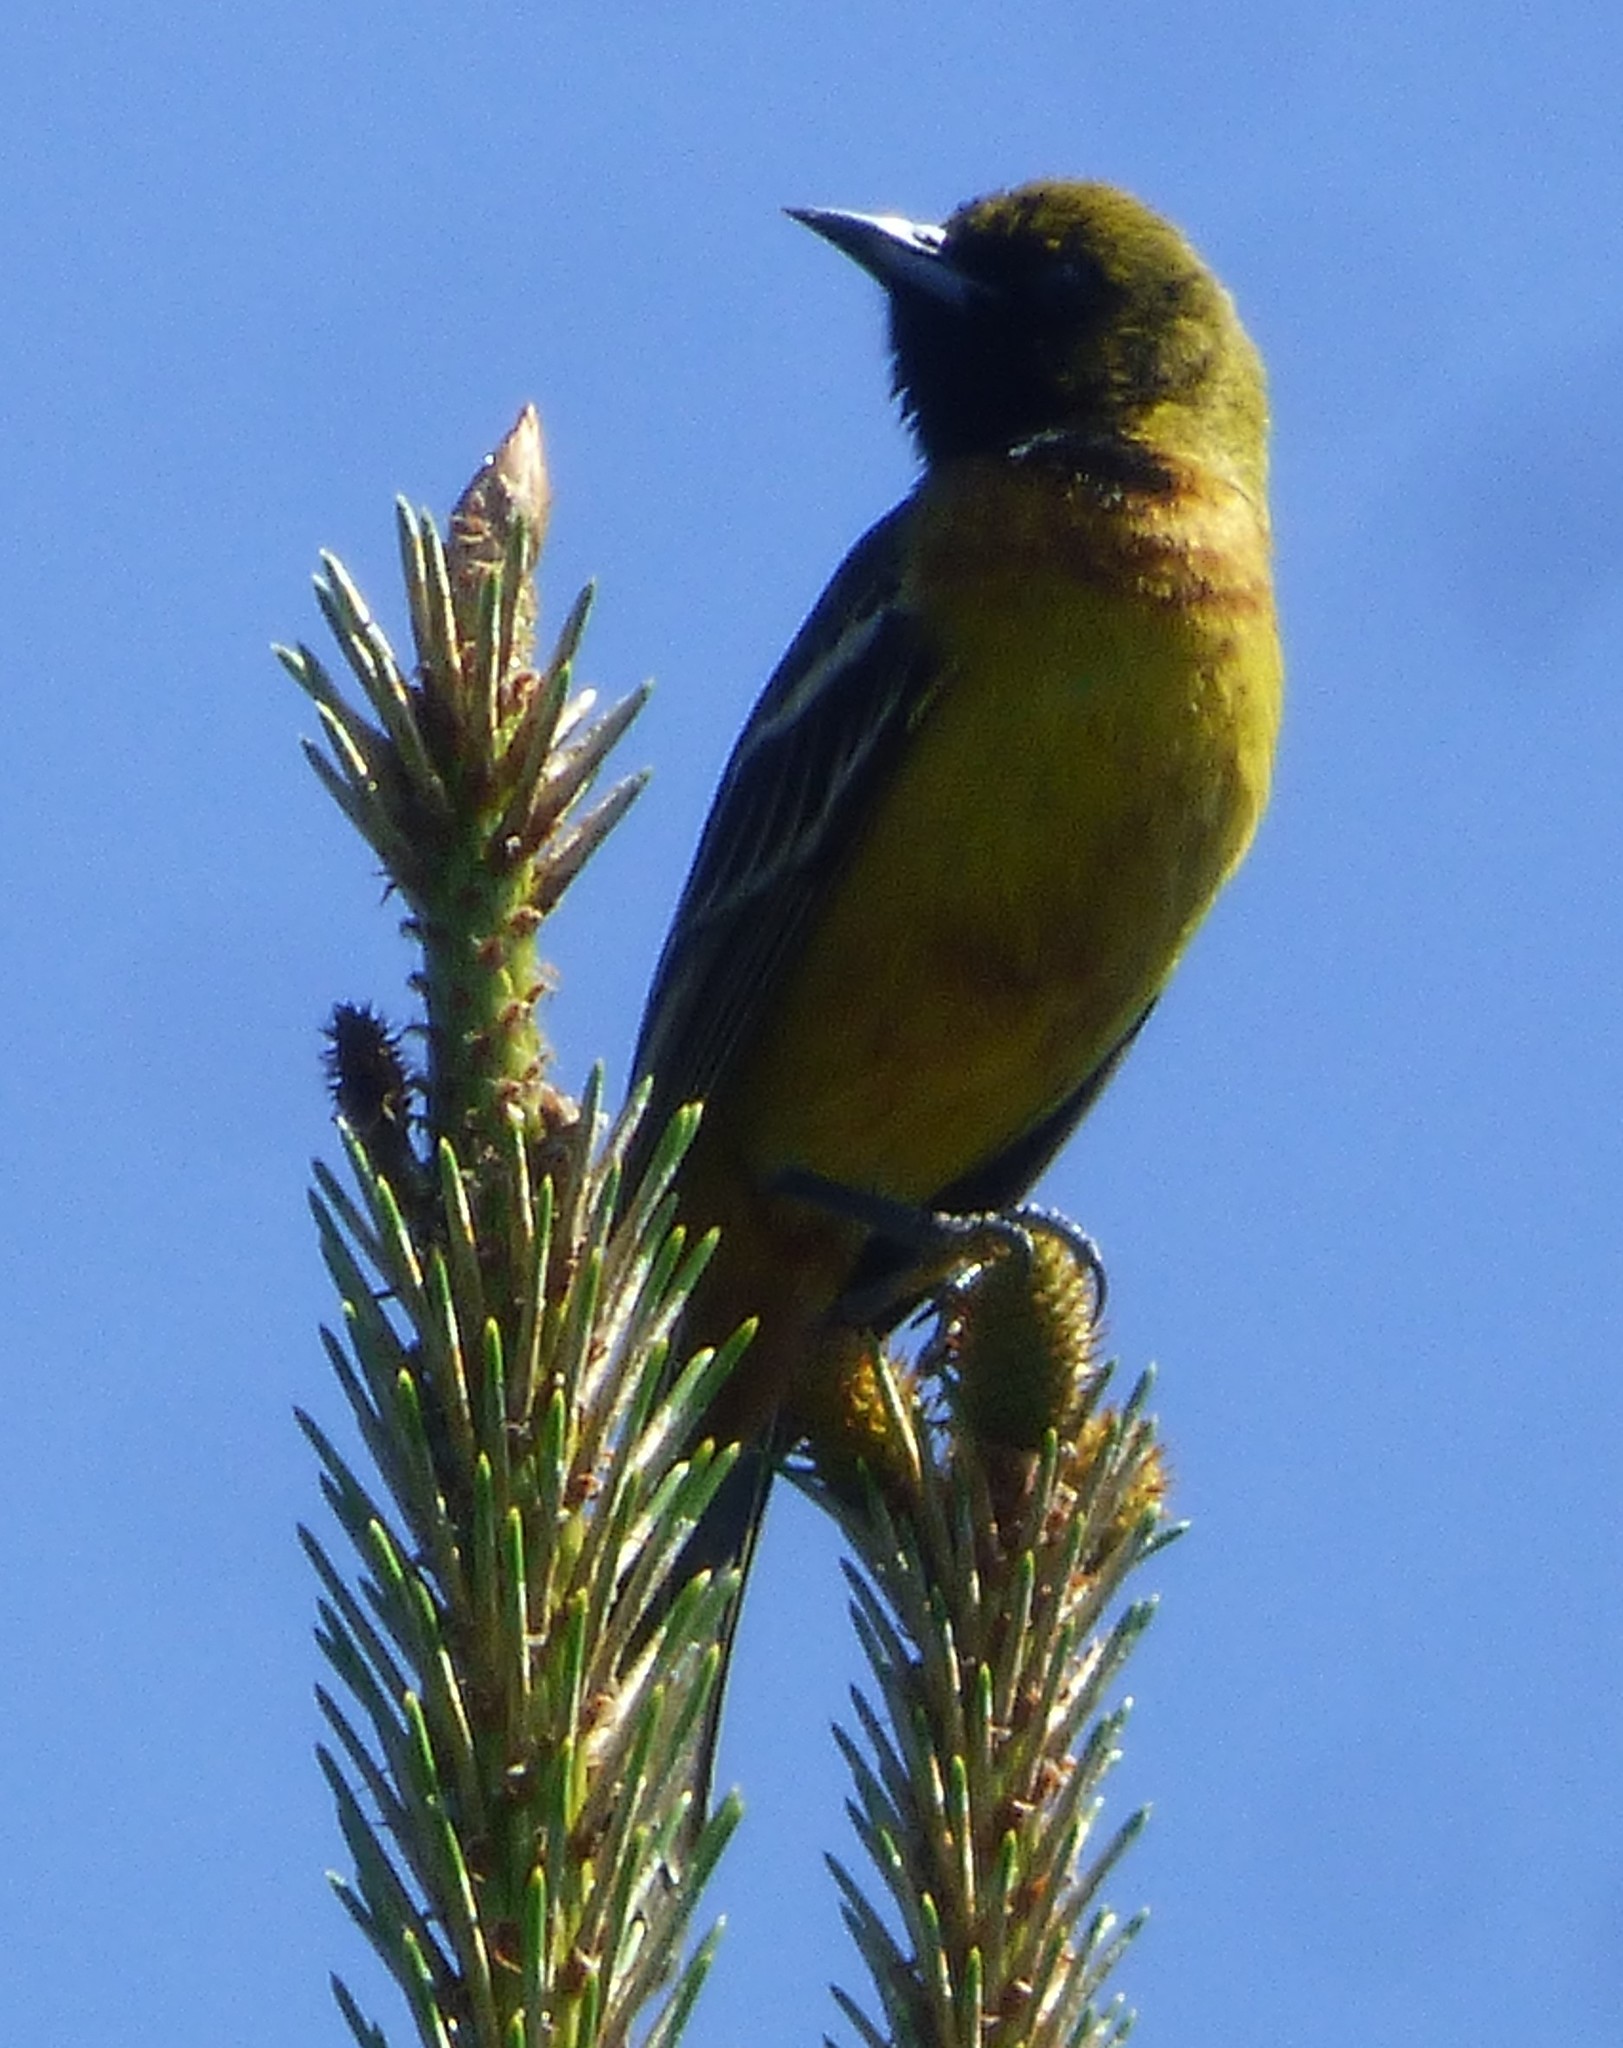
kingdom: Animalia
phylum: Chordata
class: Aves
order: Passeriformes
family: Icteridae
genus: Icterus
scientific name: Icterus spurius
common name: Orchard oriole
